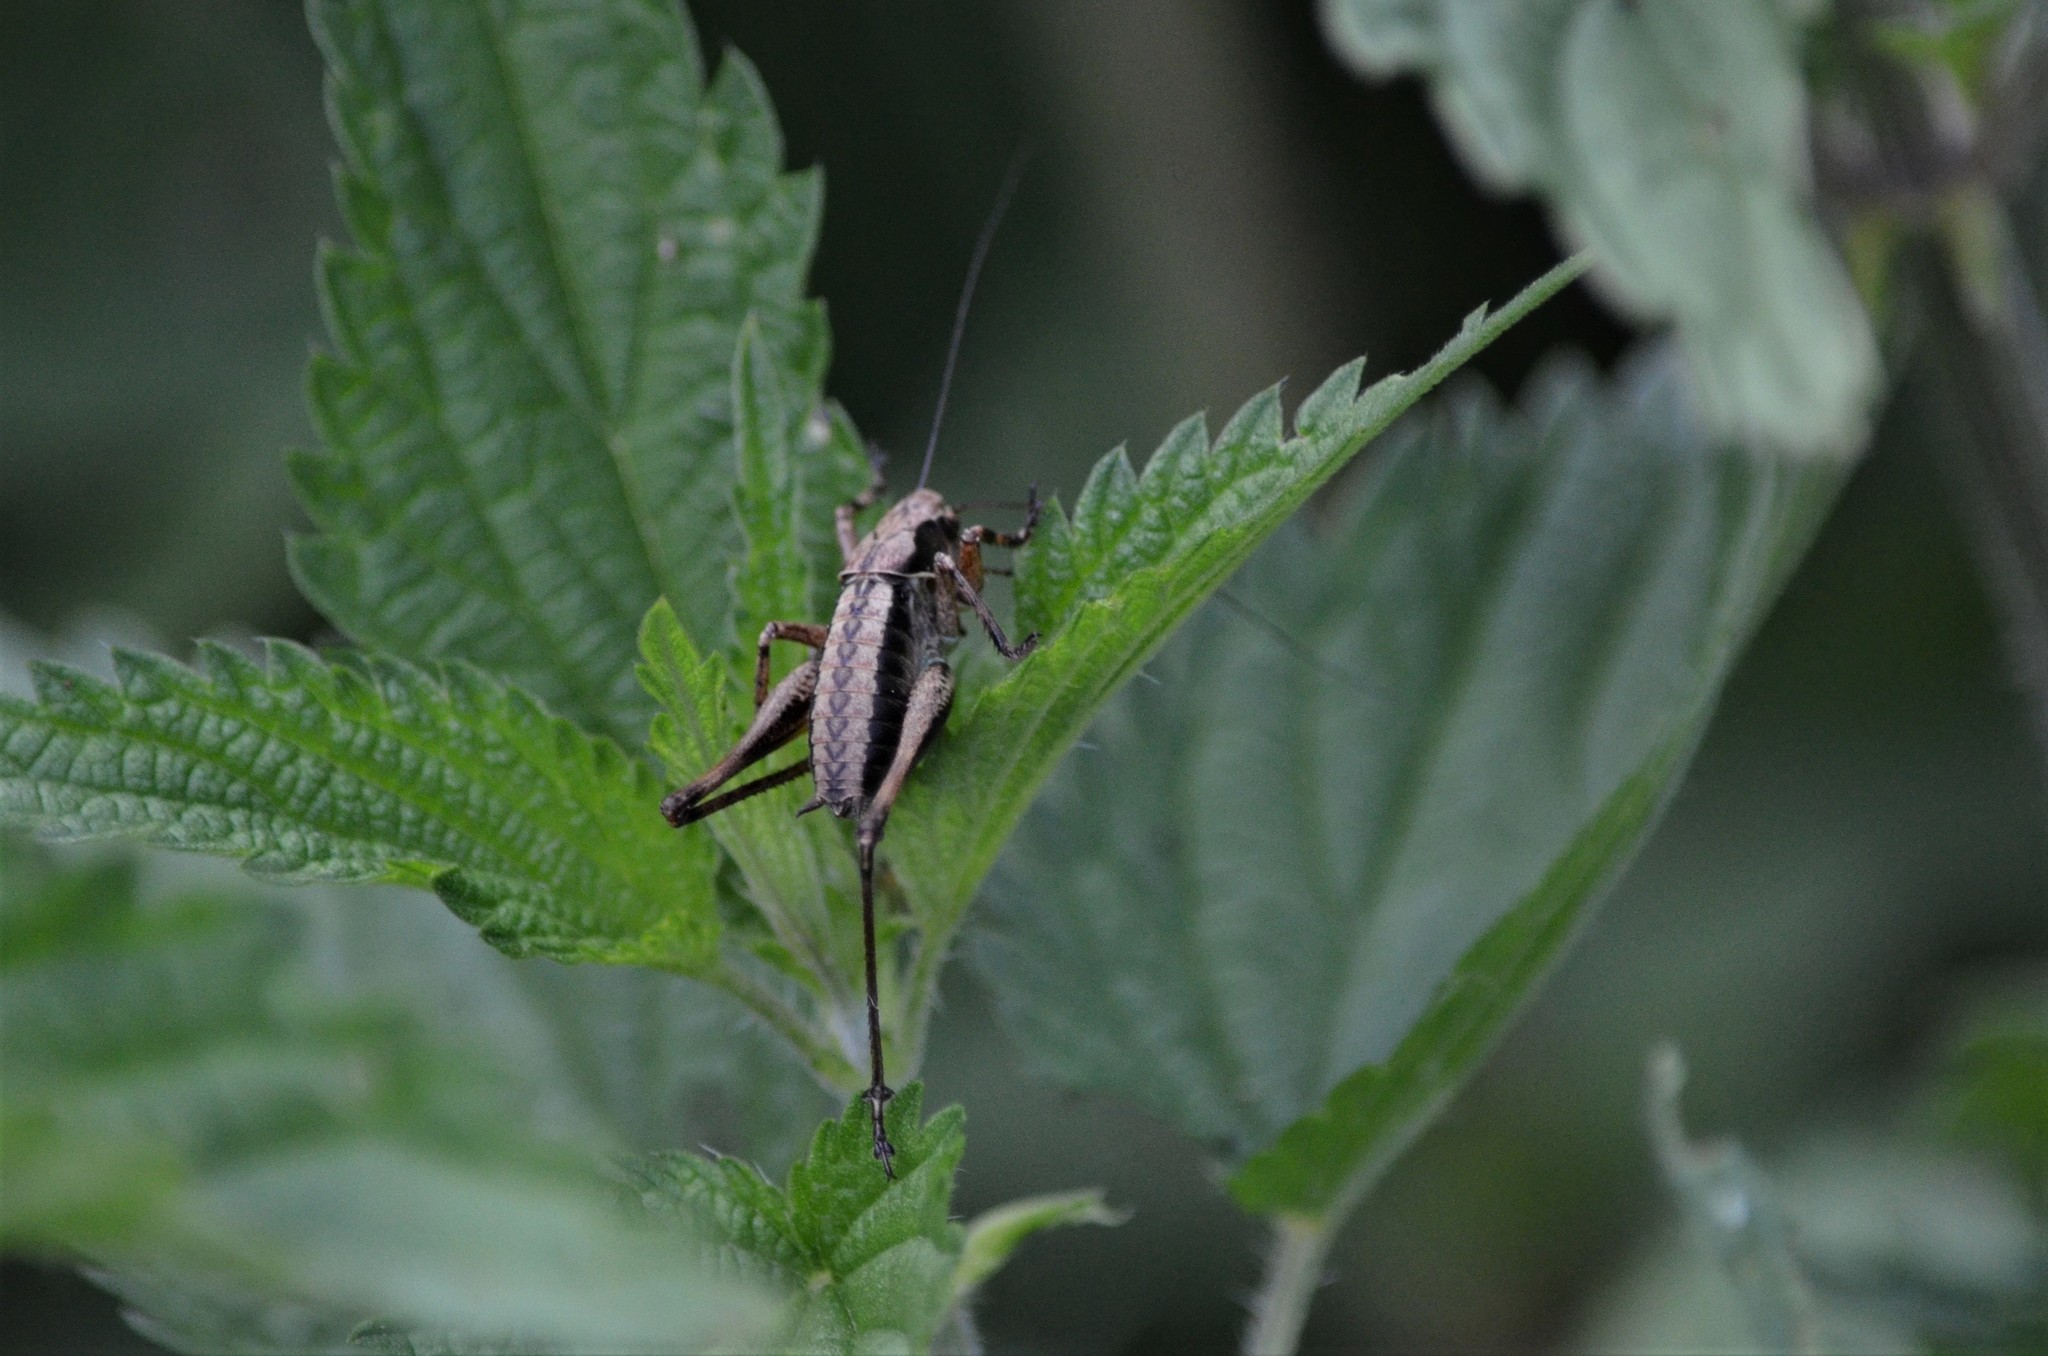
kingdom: Animalia
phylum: Arthropoda
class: Insecta
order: Orthoptera
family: Tettigoniidae
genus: Pholidoptera
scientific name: Pholidoptera griseoaptera
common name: Dark bush-cricket
